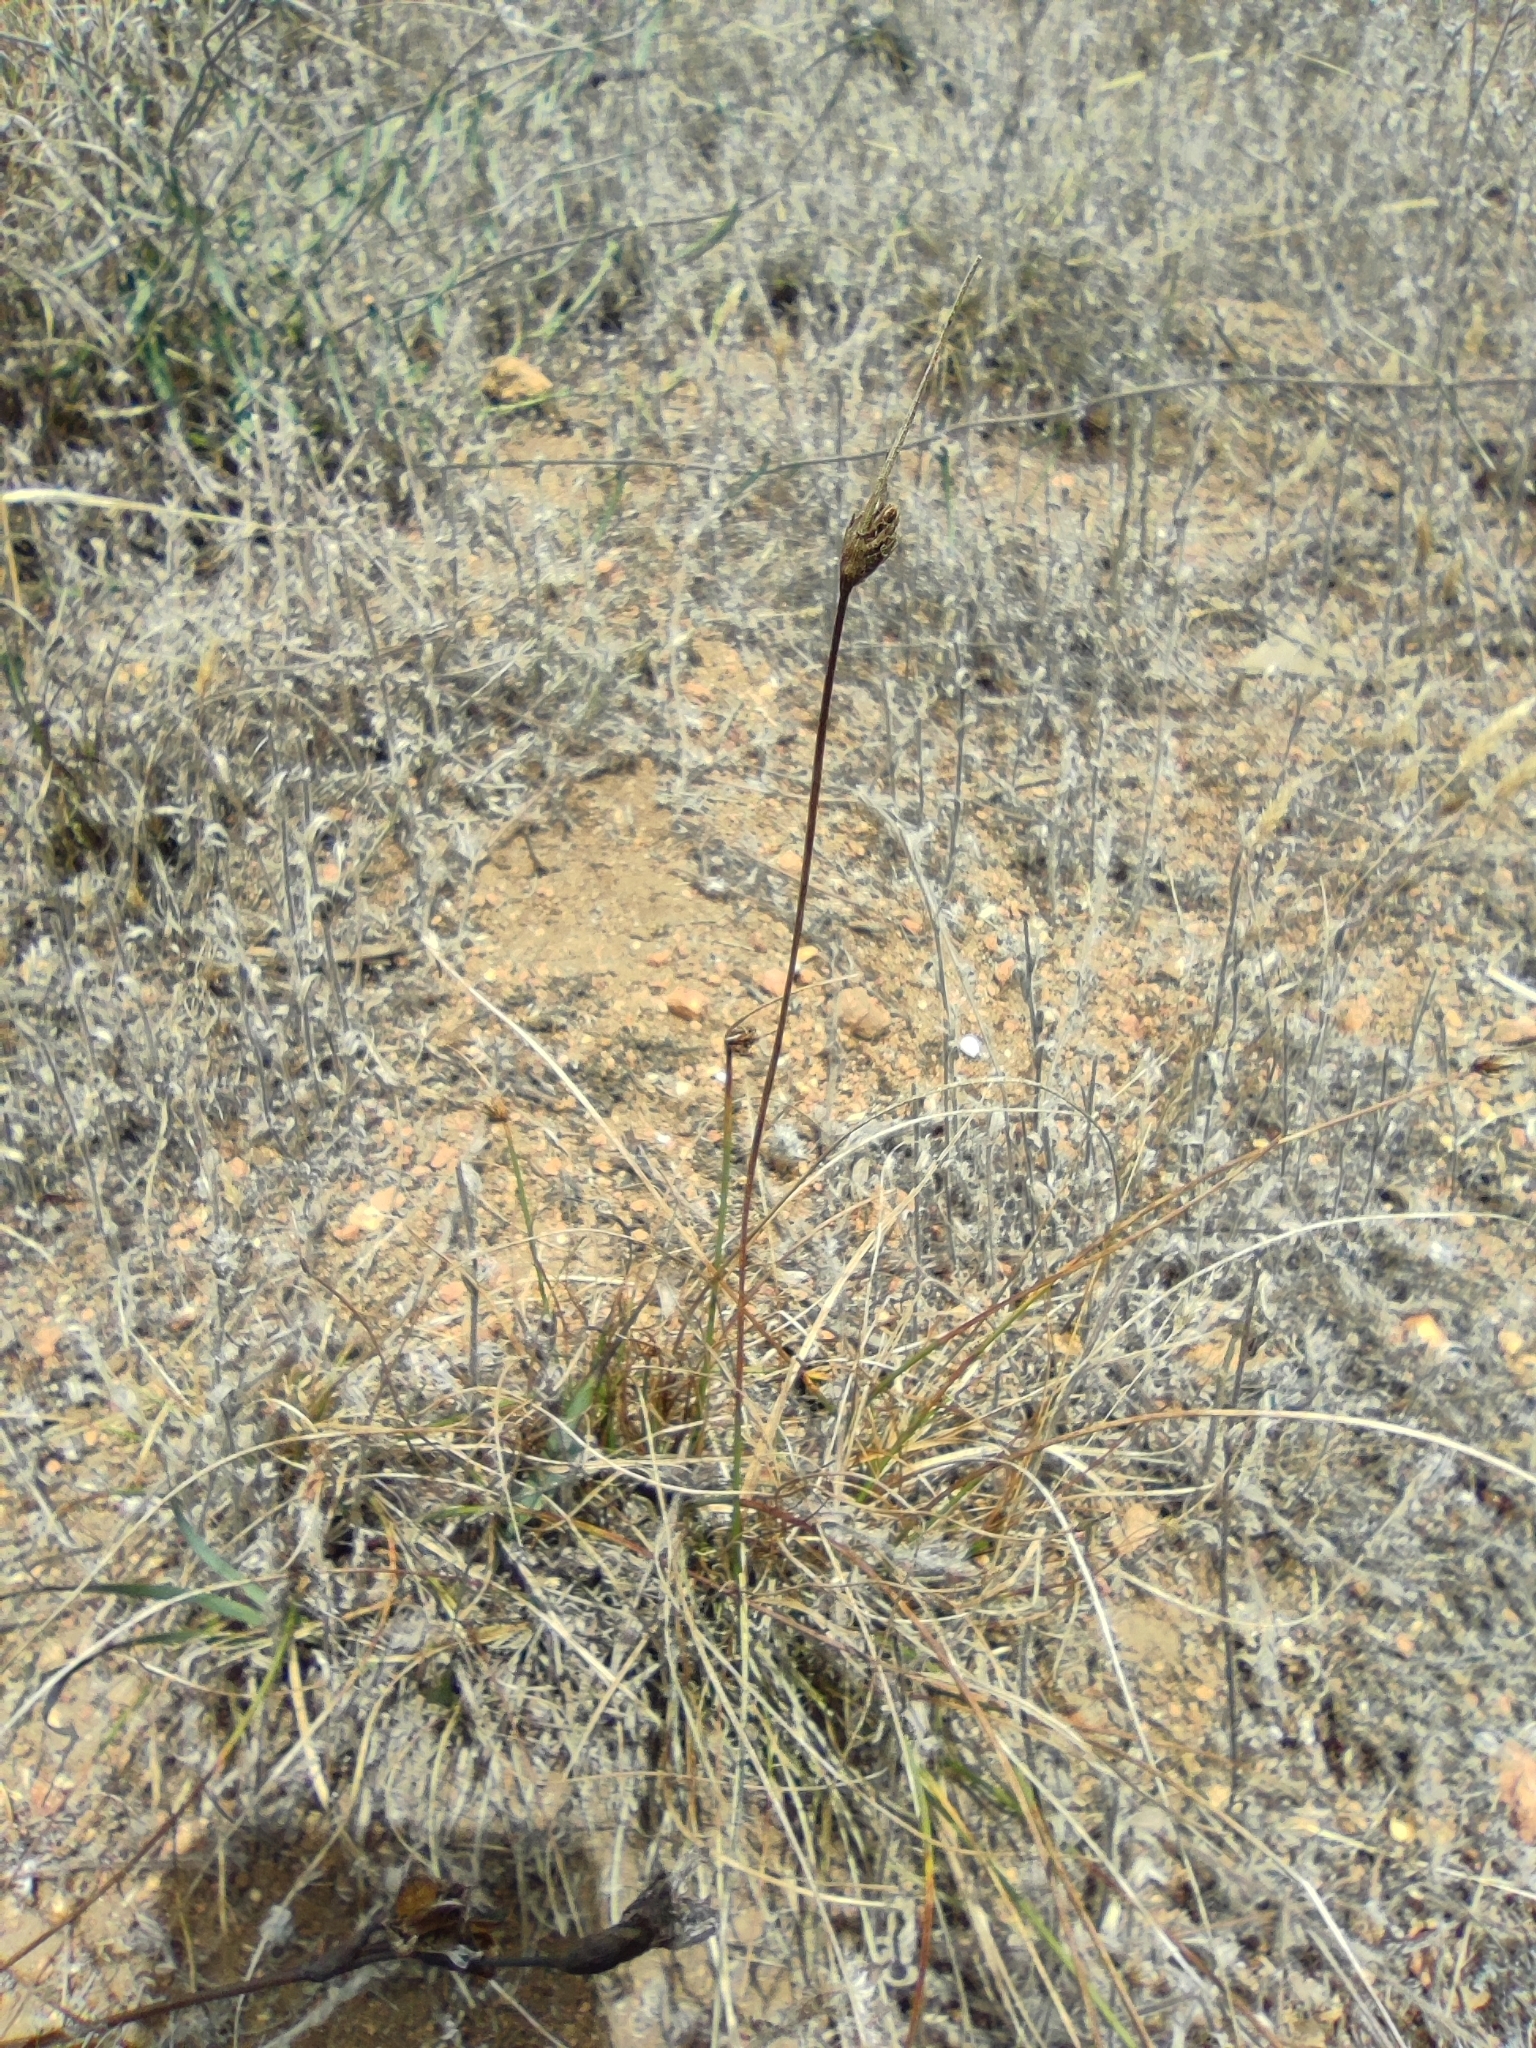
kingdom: Plantae
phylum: Tracheophyta
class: Liliopsida
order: Poales
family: Cyperaceae
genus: Carex
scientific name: Carex setifolia
